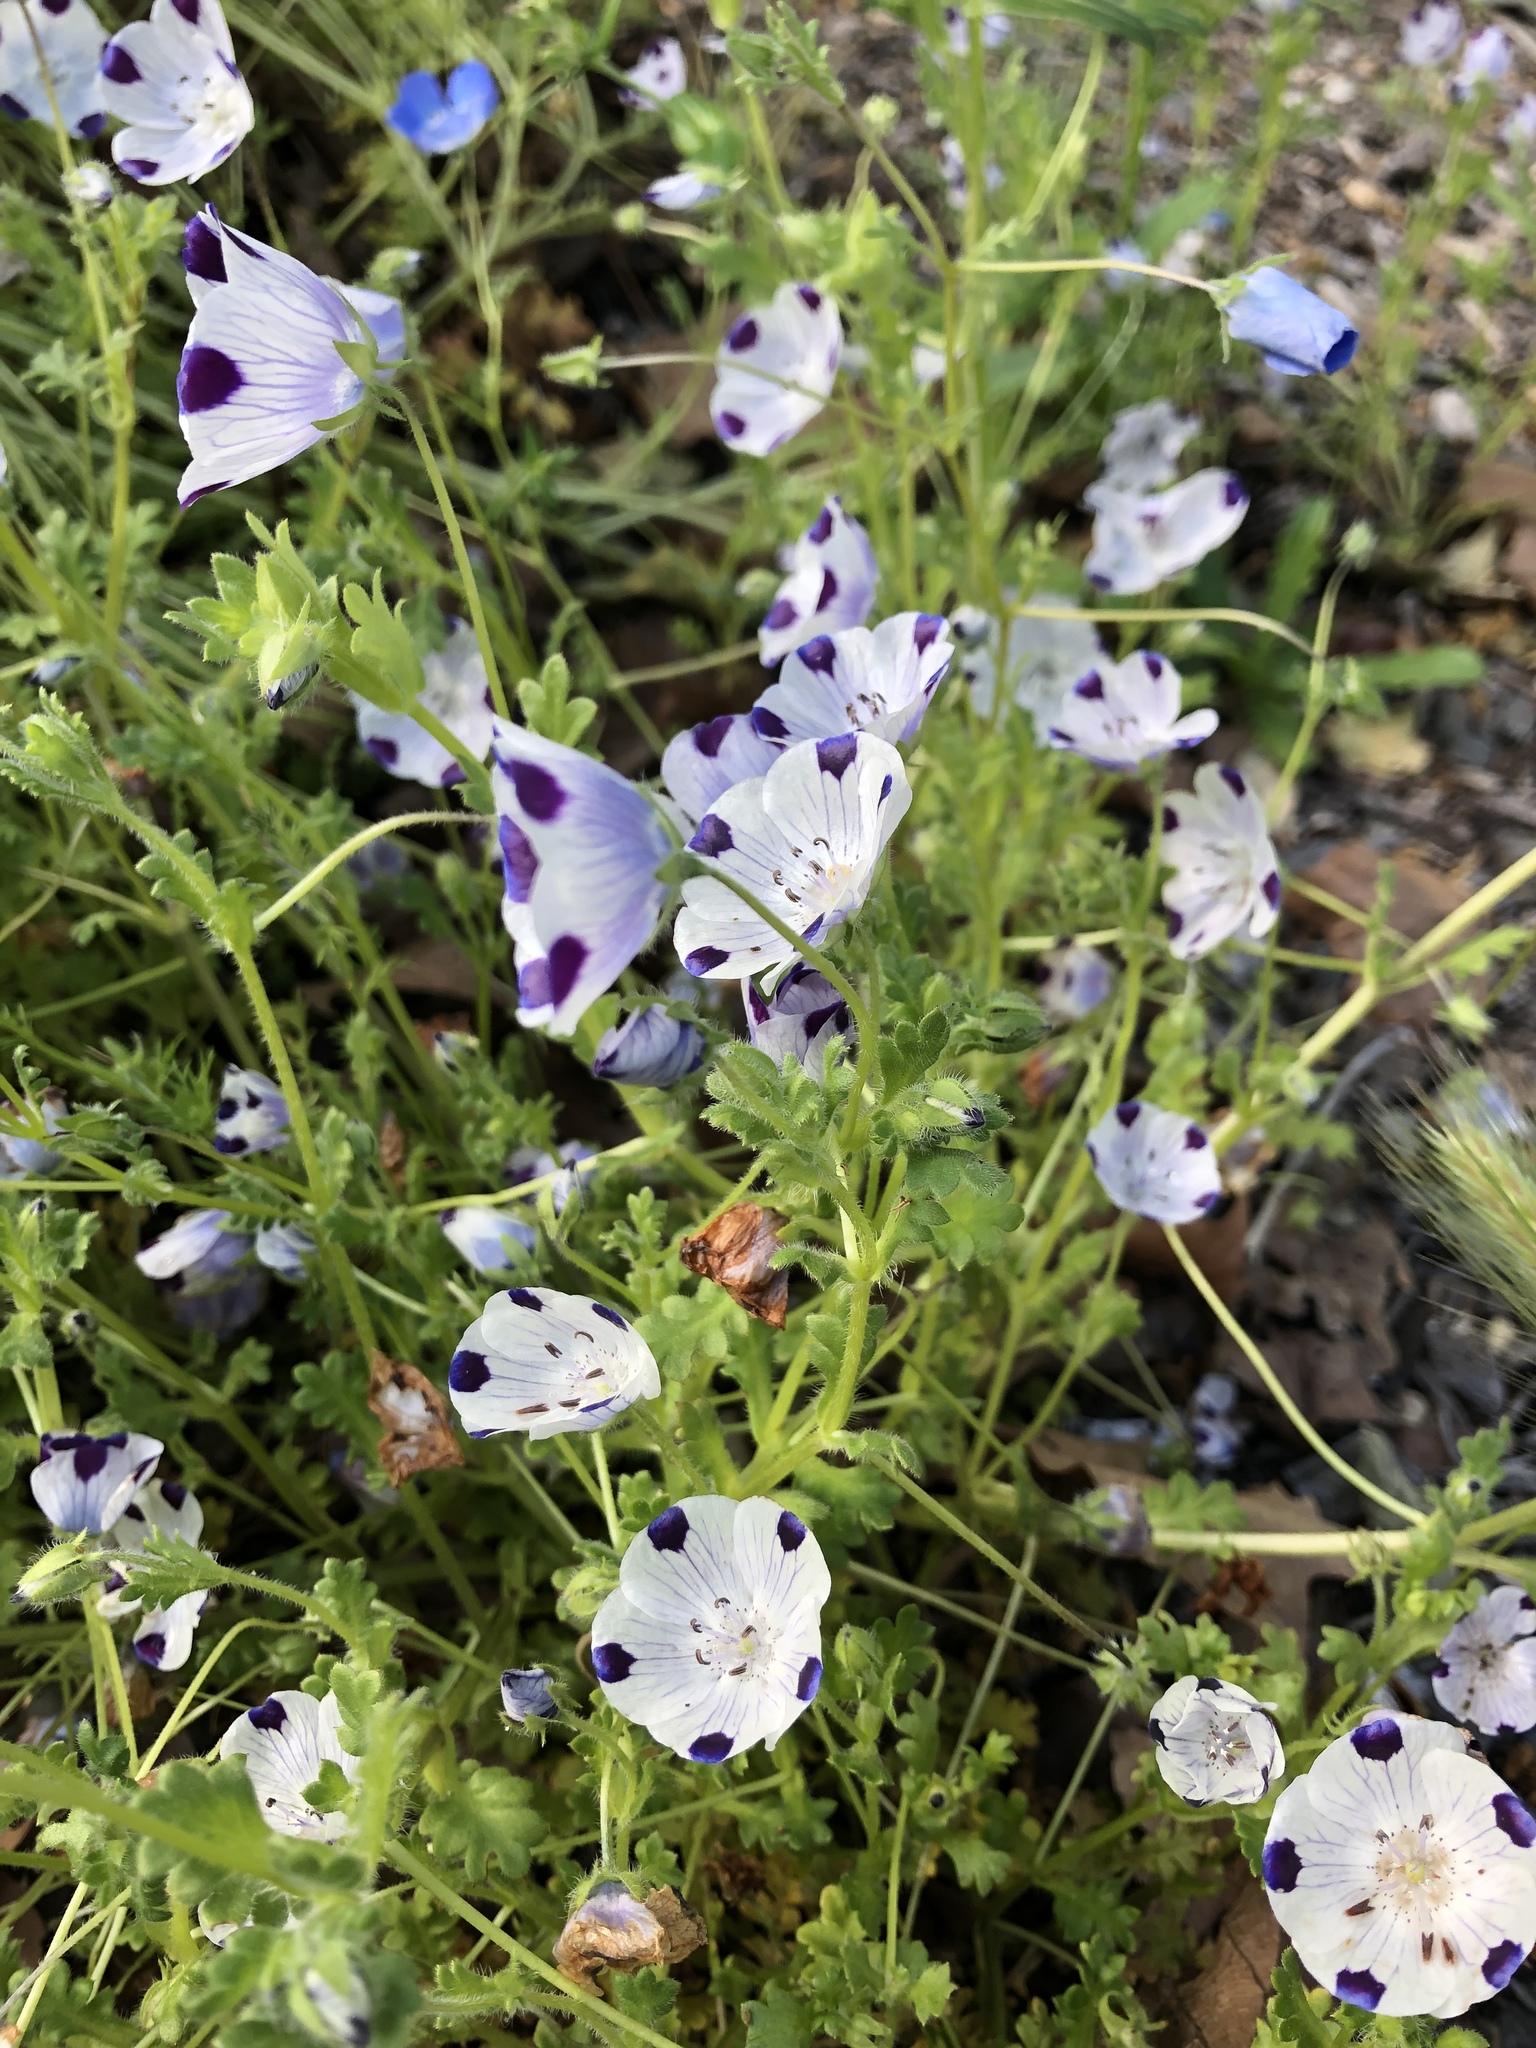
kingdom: Plantae
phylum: Tracheophyta
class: Magnoliopsida
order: Boraginales
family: Hydrophyllaceae
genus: Nemophila
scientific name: Nemophila maculata
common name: Fivespot
